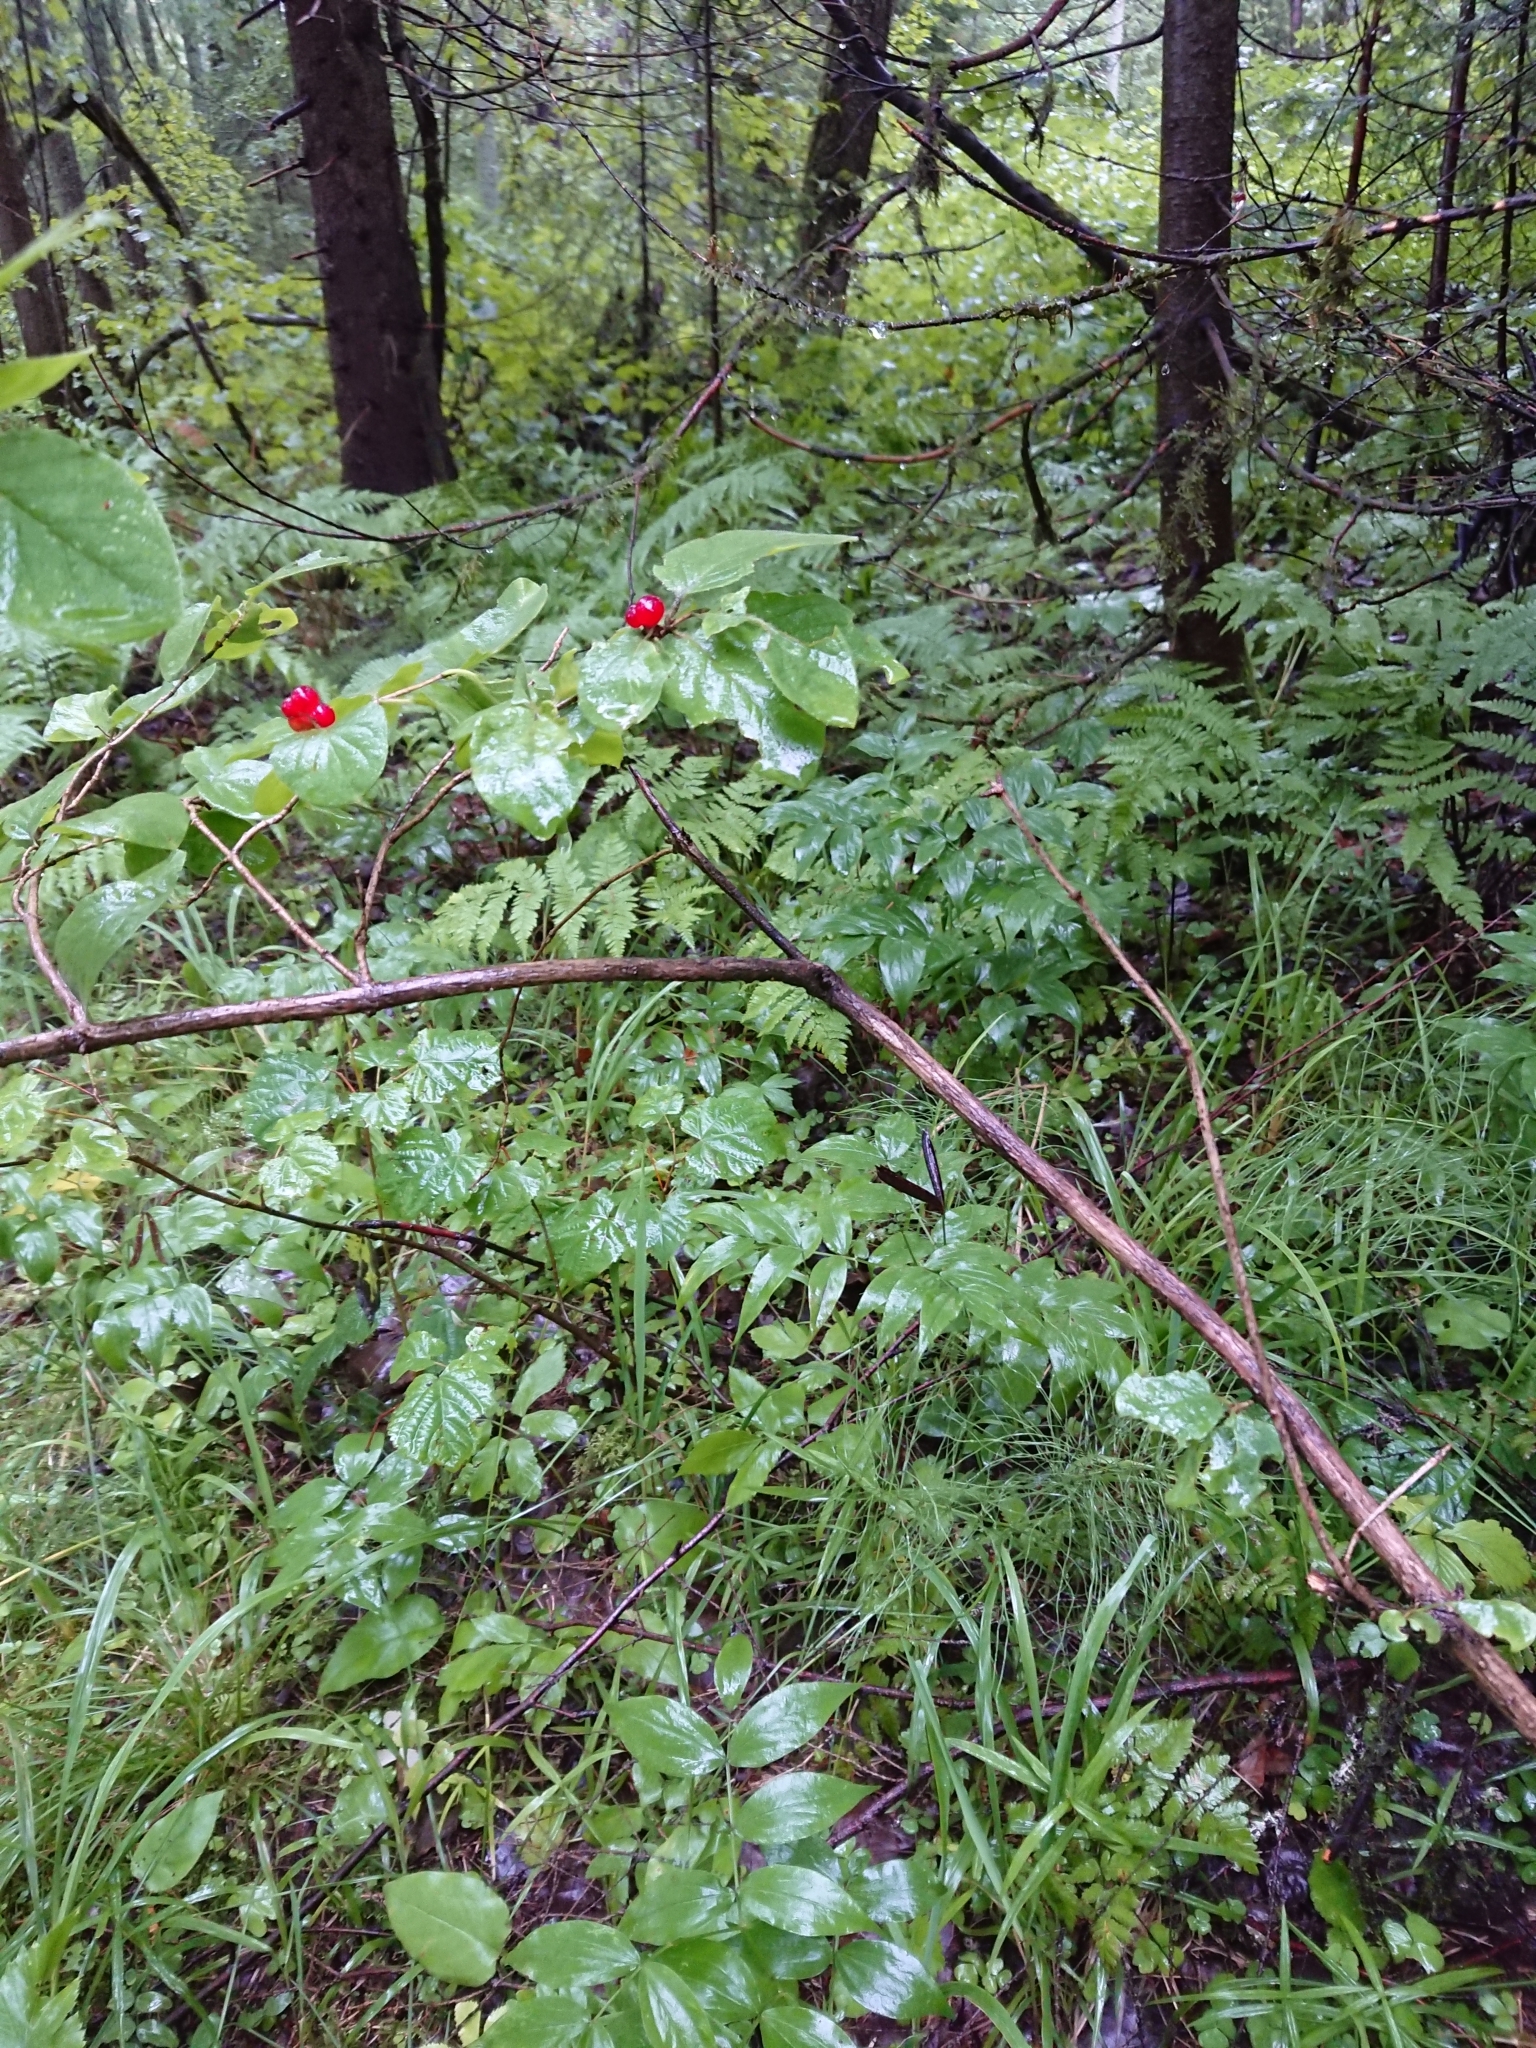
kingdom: Plantae
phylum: Tracheophyta
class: Magnoliopsida
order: Dipsacales
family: Caprifoliaceae
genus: Lonicera
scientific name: Lonicera xylosteum
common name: Fly honeysuckle
